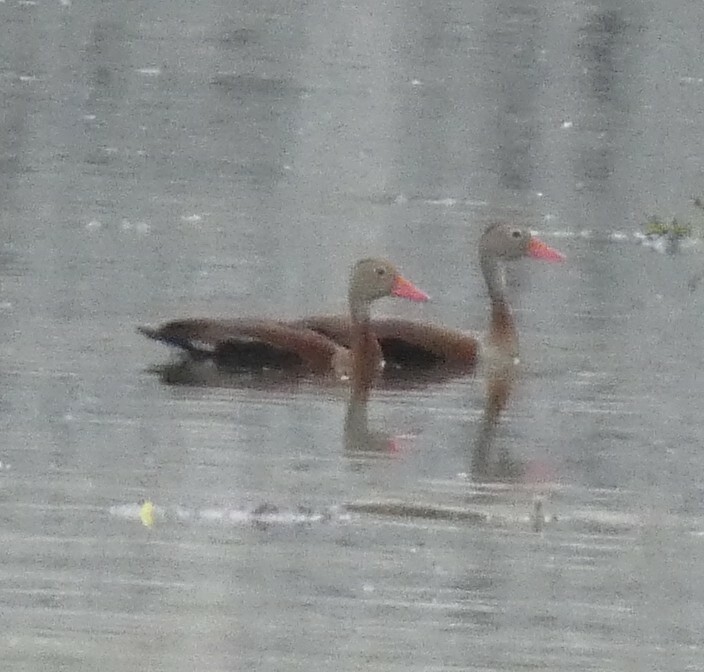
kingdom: Animalia
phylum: Chordata
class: Aves
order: Anseriformes
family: Anatidae
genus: Dendrocygna
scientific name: Dendrocygna autumnalis
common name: Black-bellied whistling duck
